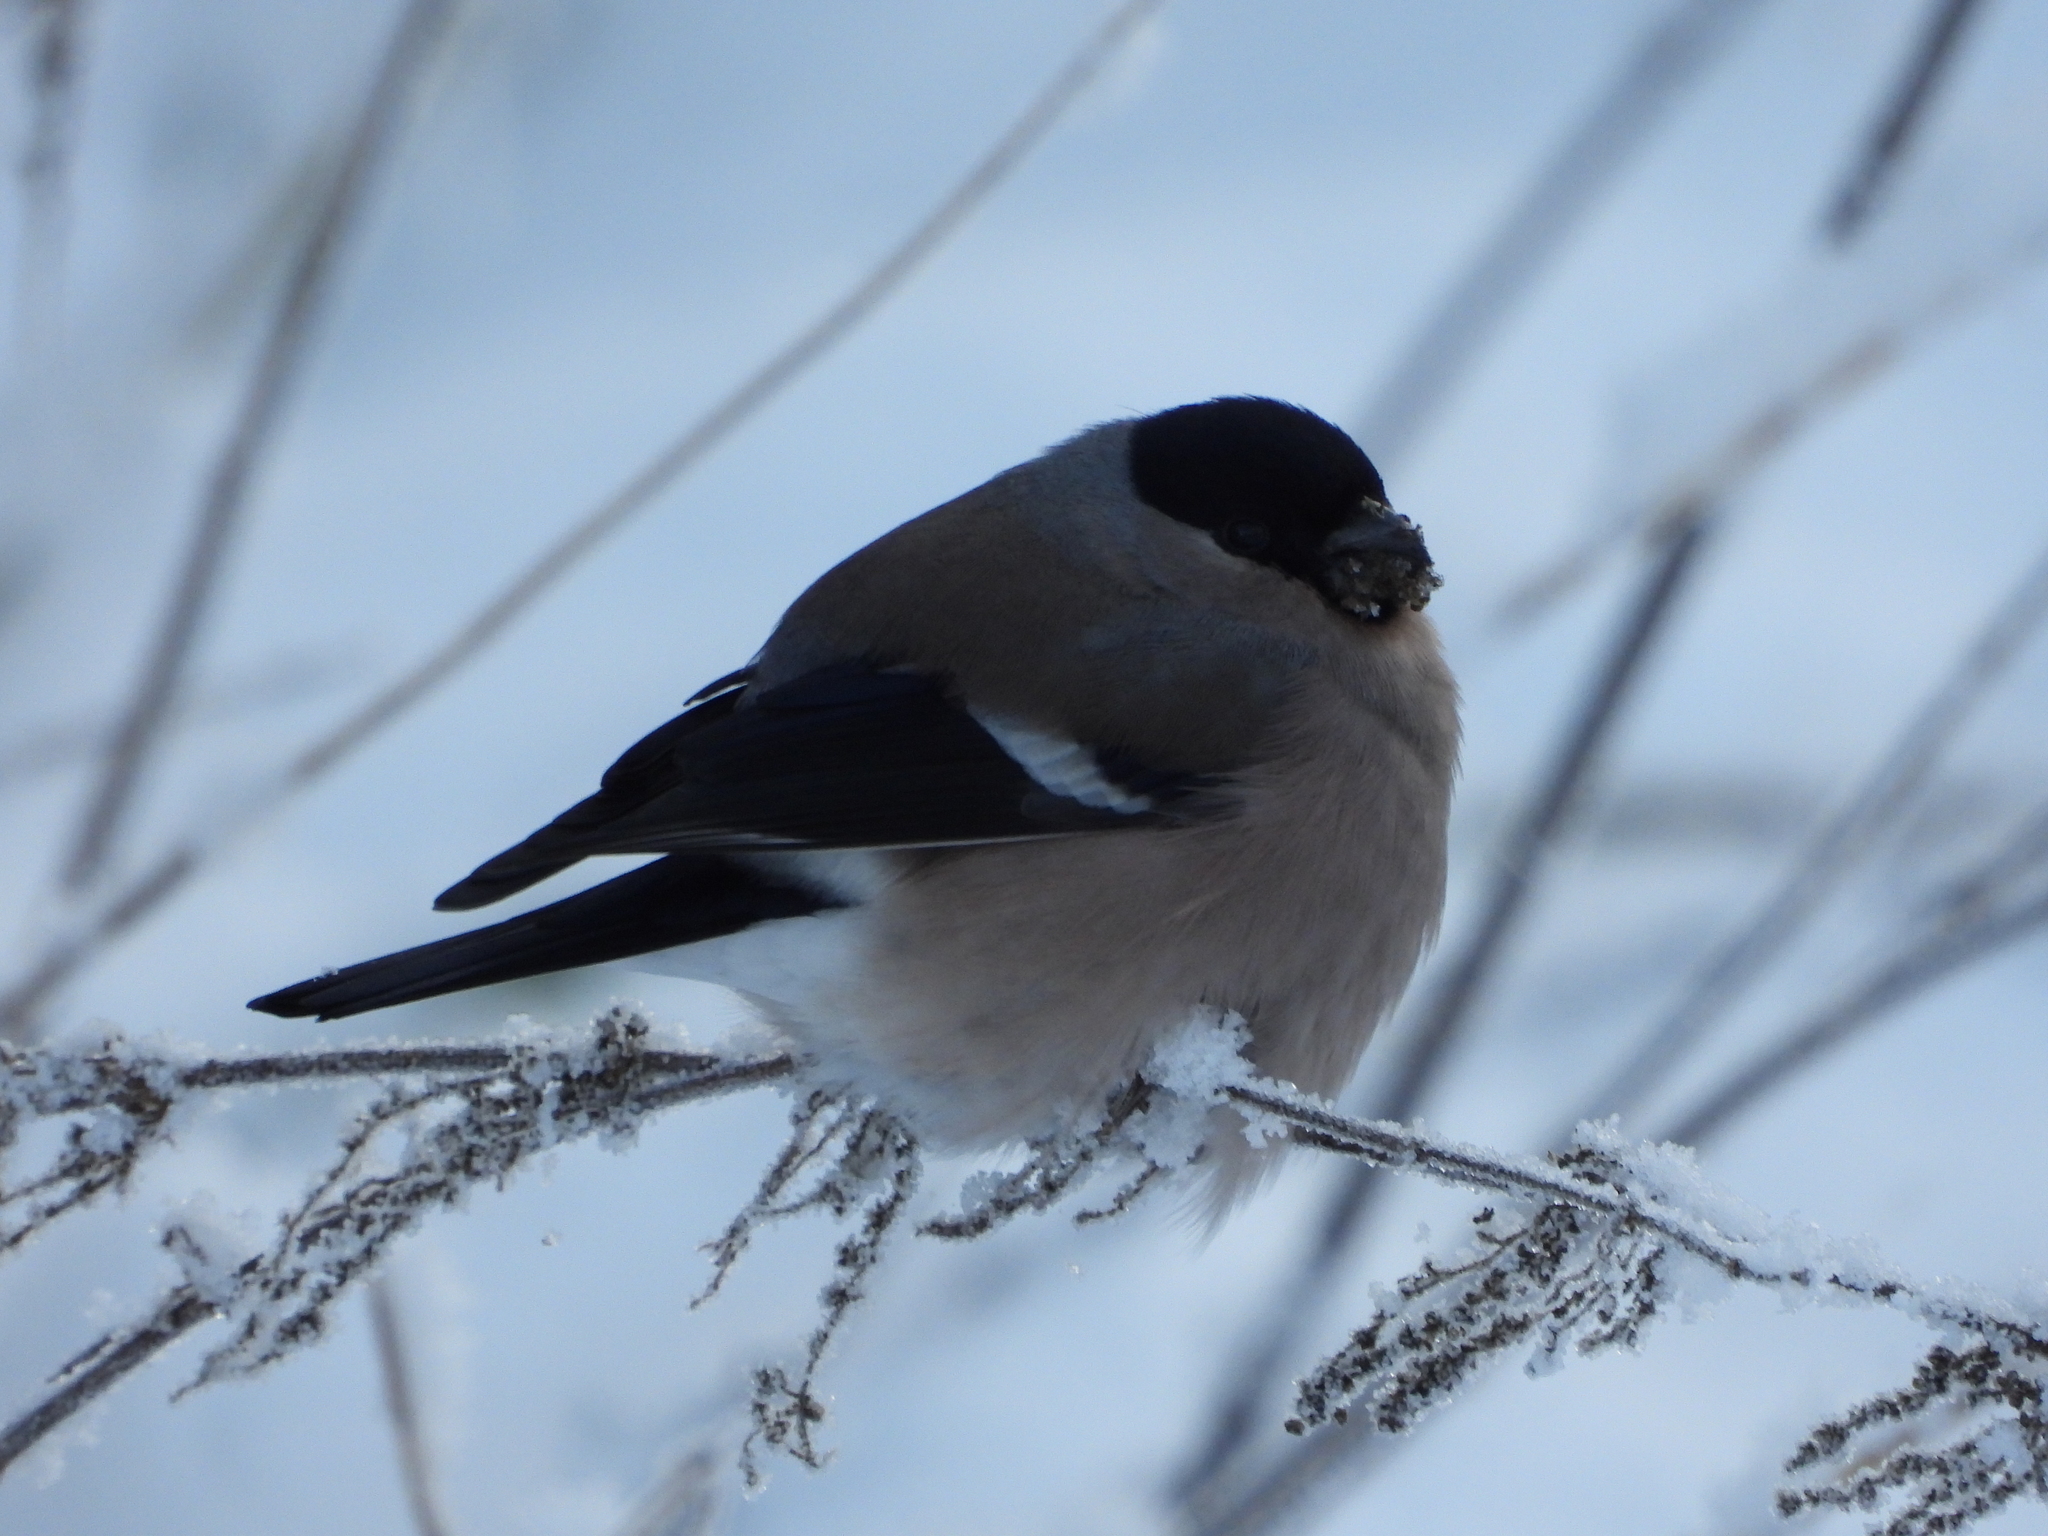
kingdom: Animalia
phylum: Chordata
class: Aves
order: Passeriformes
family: Fringillidae
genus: Pyrrhula
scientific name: Pyrrhula pyrrhula
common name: Eurasian bullfinch
